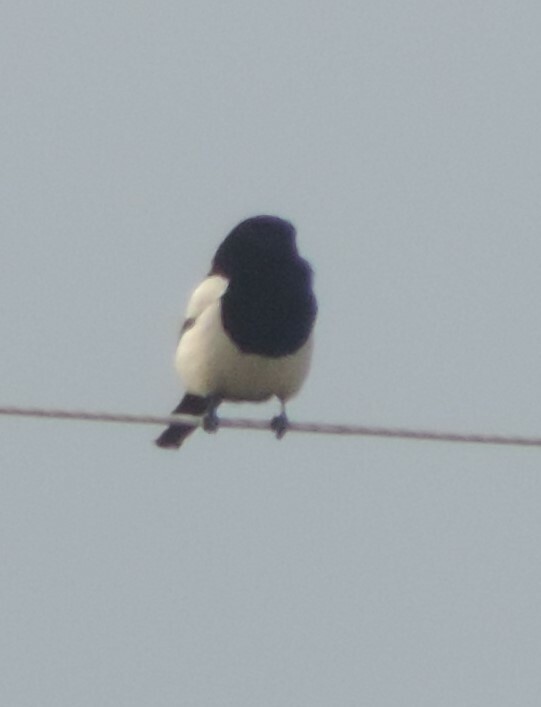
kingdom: Animalia
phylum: Chordata
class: Aves
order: Passeriformes
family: Corvidae
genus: Pica
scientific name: Pica hudsonia
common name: Black-billed magpie
